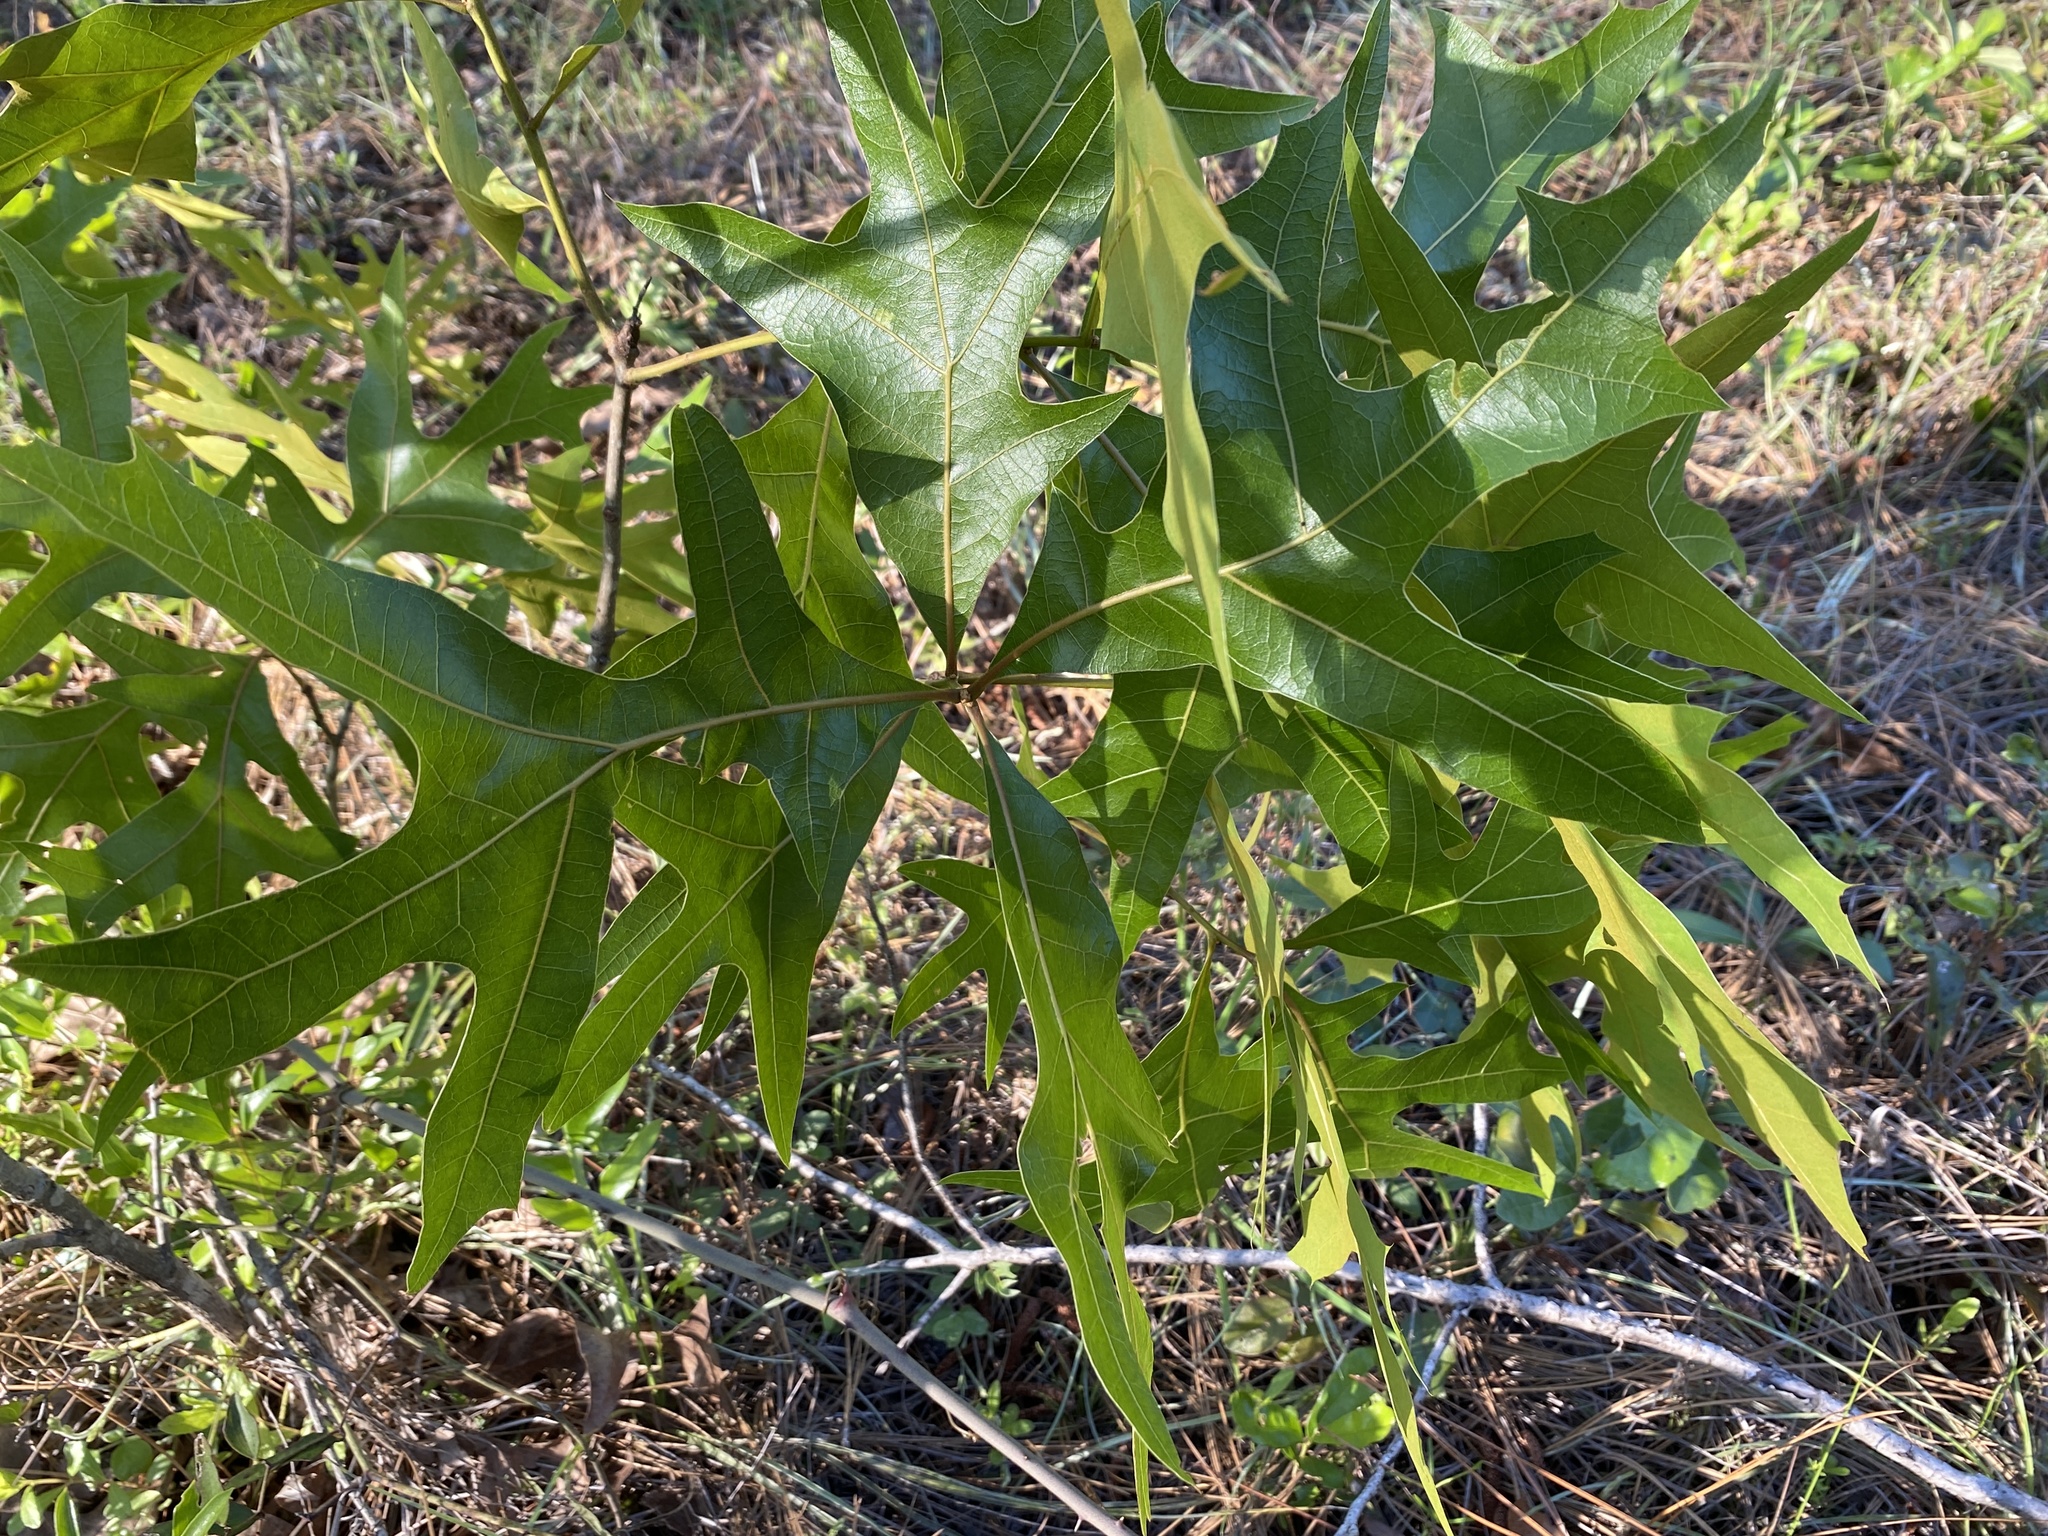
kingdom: Plantae
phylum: Tracheophyta
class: Magnoliopsida
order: Fagales
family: Fagaceae
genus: Quercus
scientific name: Quercus laevis
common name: Turkey oak
